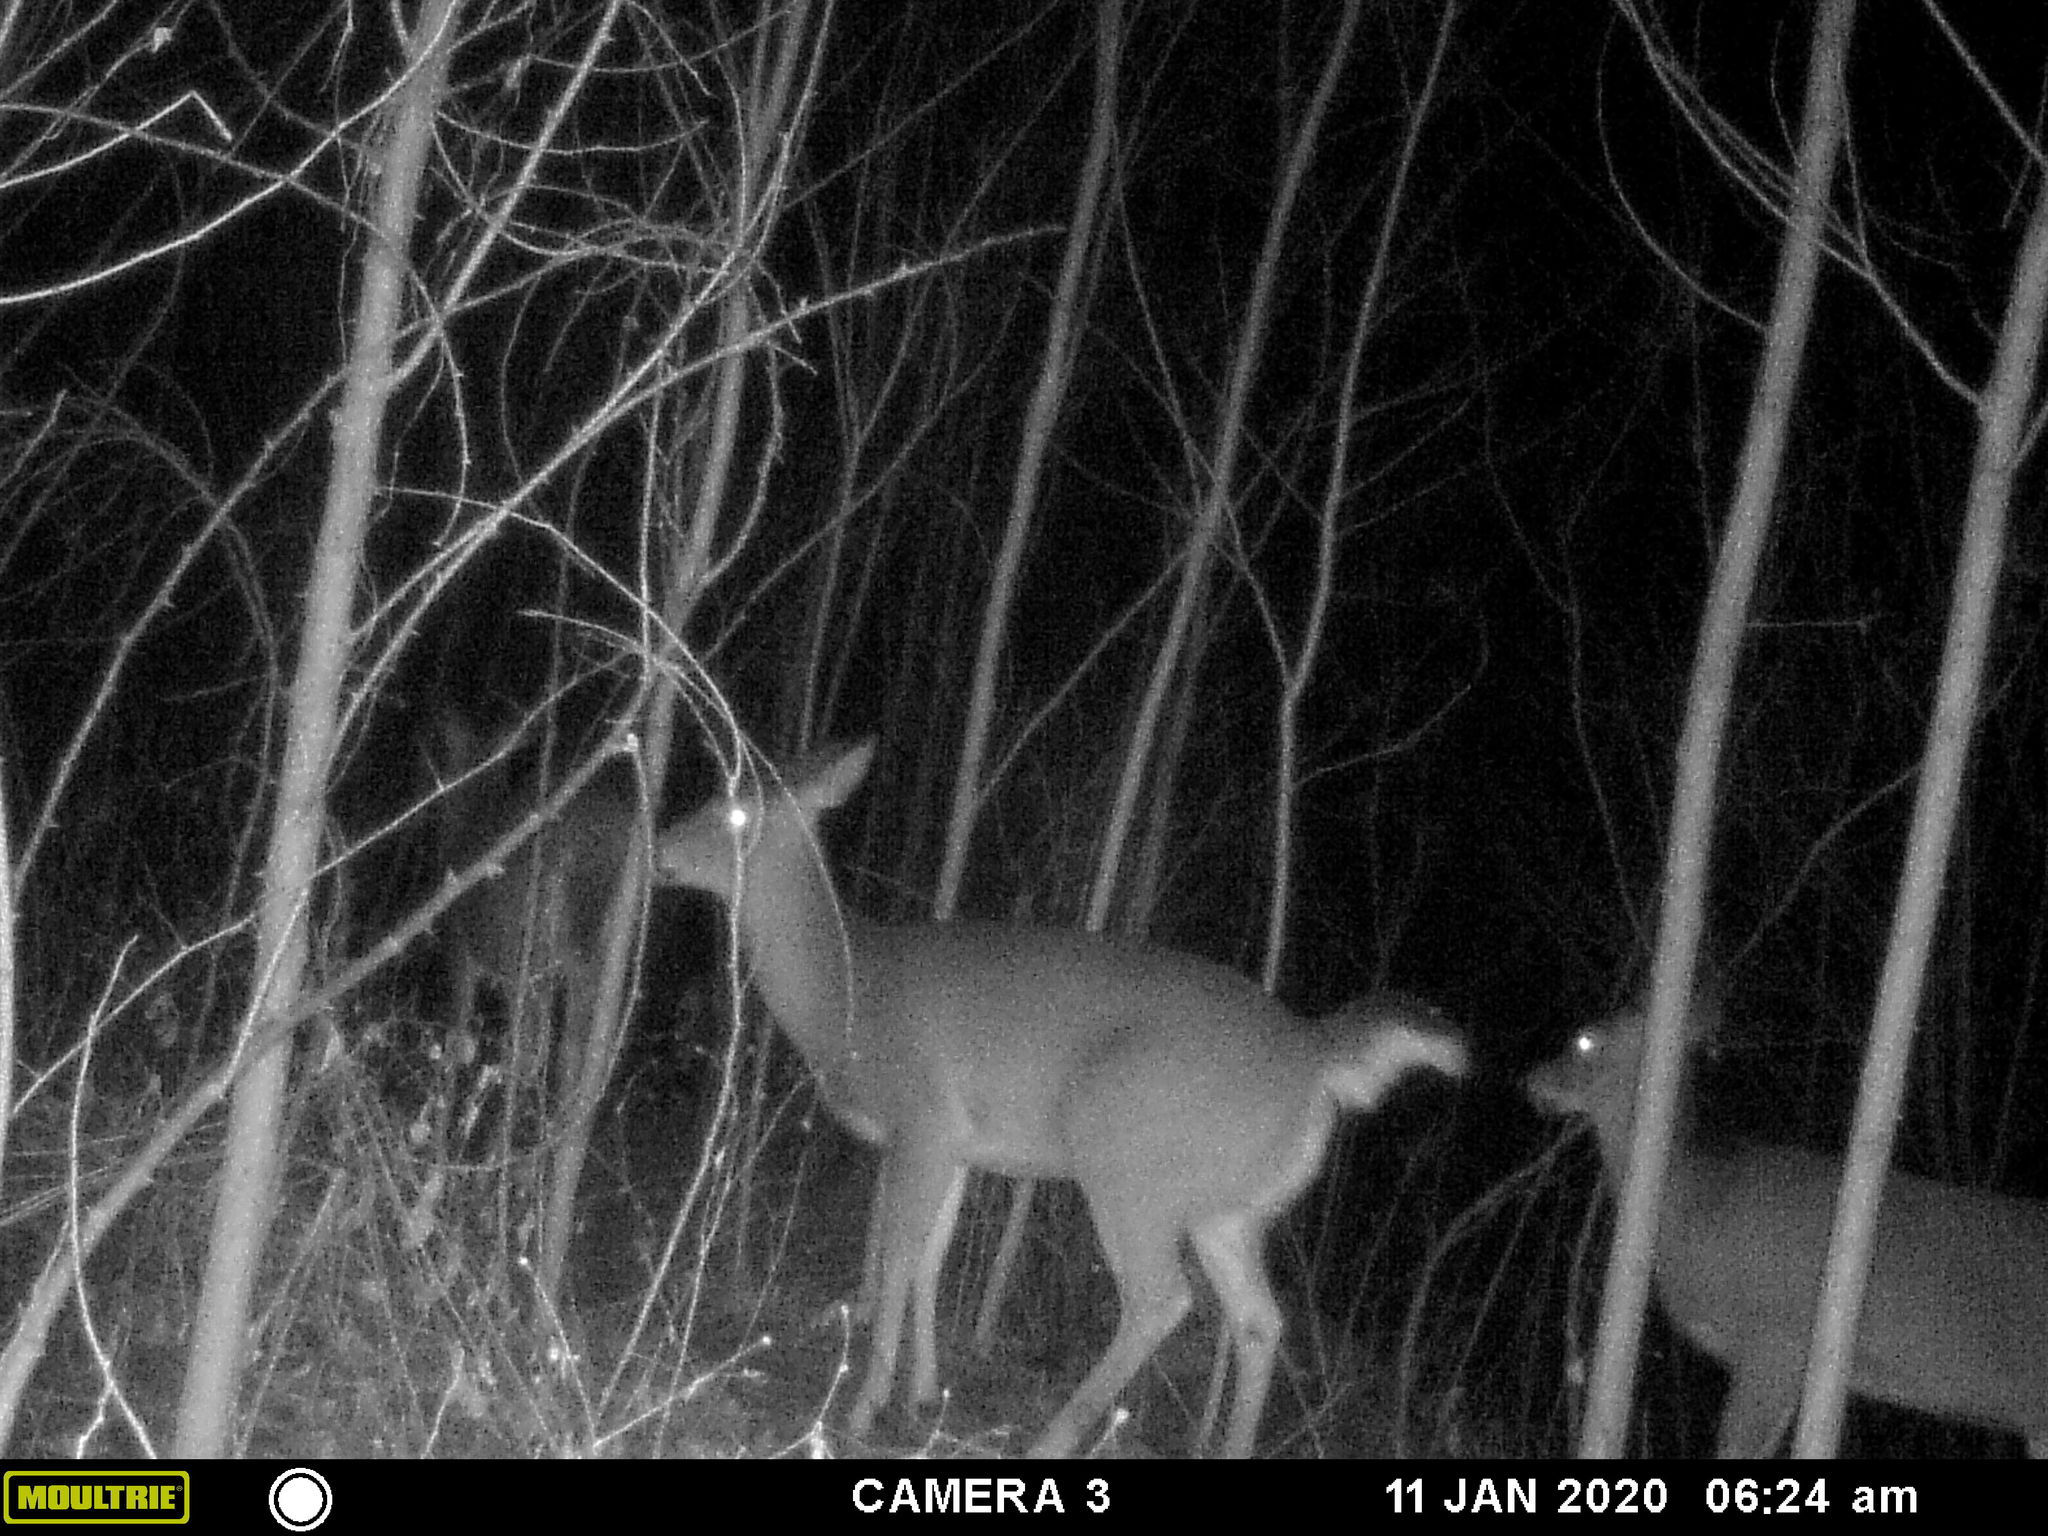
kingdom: Animalia
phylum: Chordata
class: Mammalia
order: Artiodactyla
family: Cervidae
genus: Odocoileus
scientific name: Odocoileus virginianus
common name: White-tailed deer
